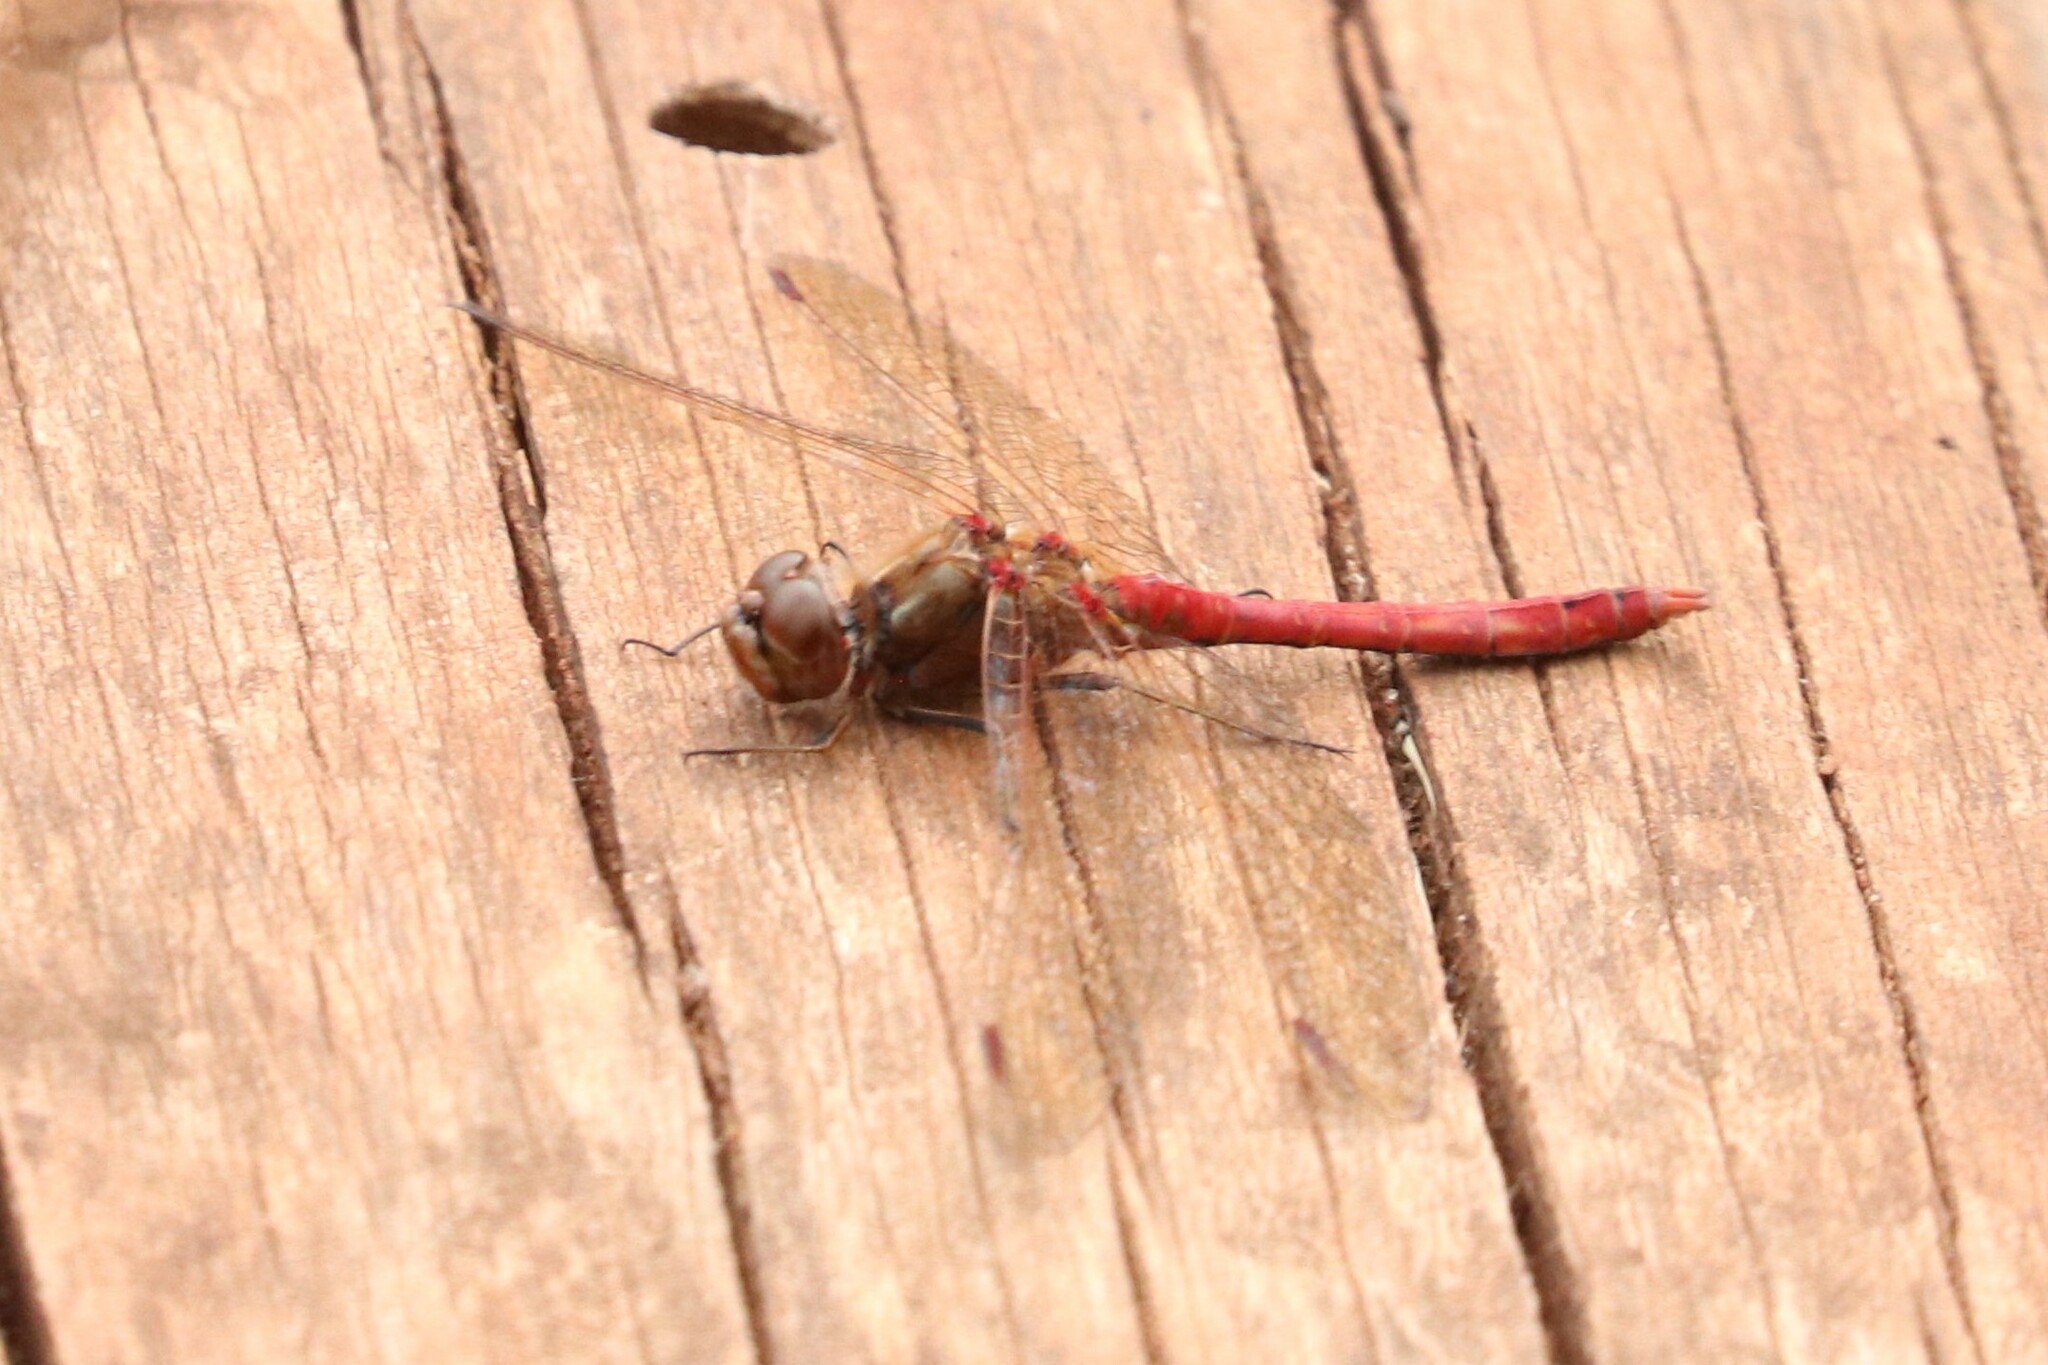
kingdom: Animalia
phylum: Arthropoda
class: Insecta
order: Odonata
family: Libellulidae
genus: Sympetrum
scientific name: Sympetrum vulgatum
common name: Vagrant darter
